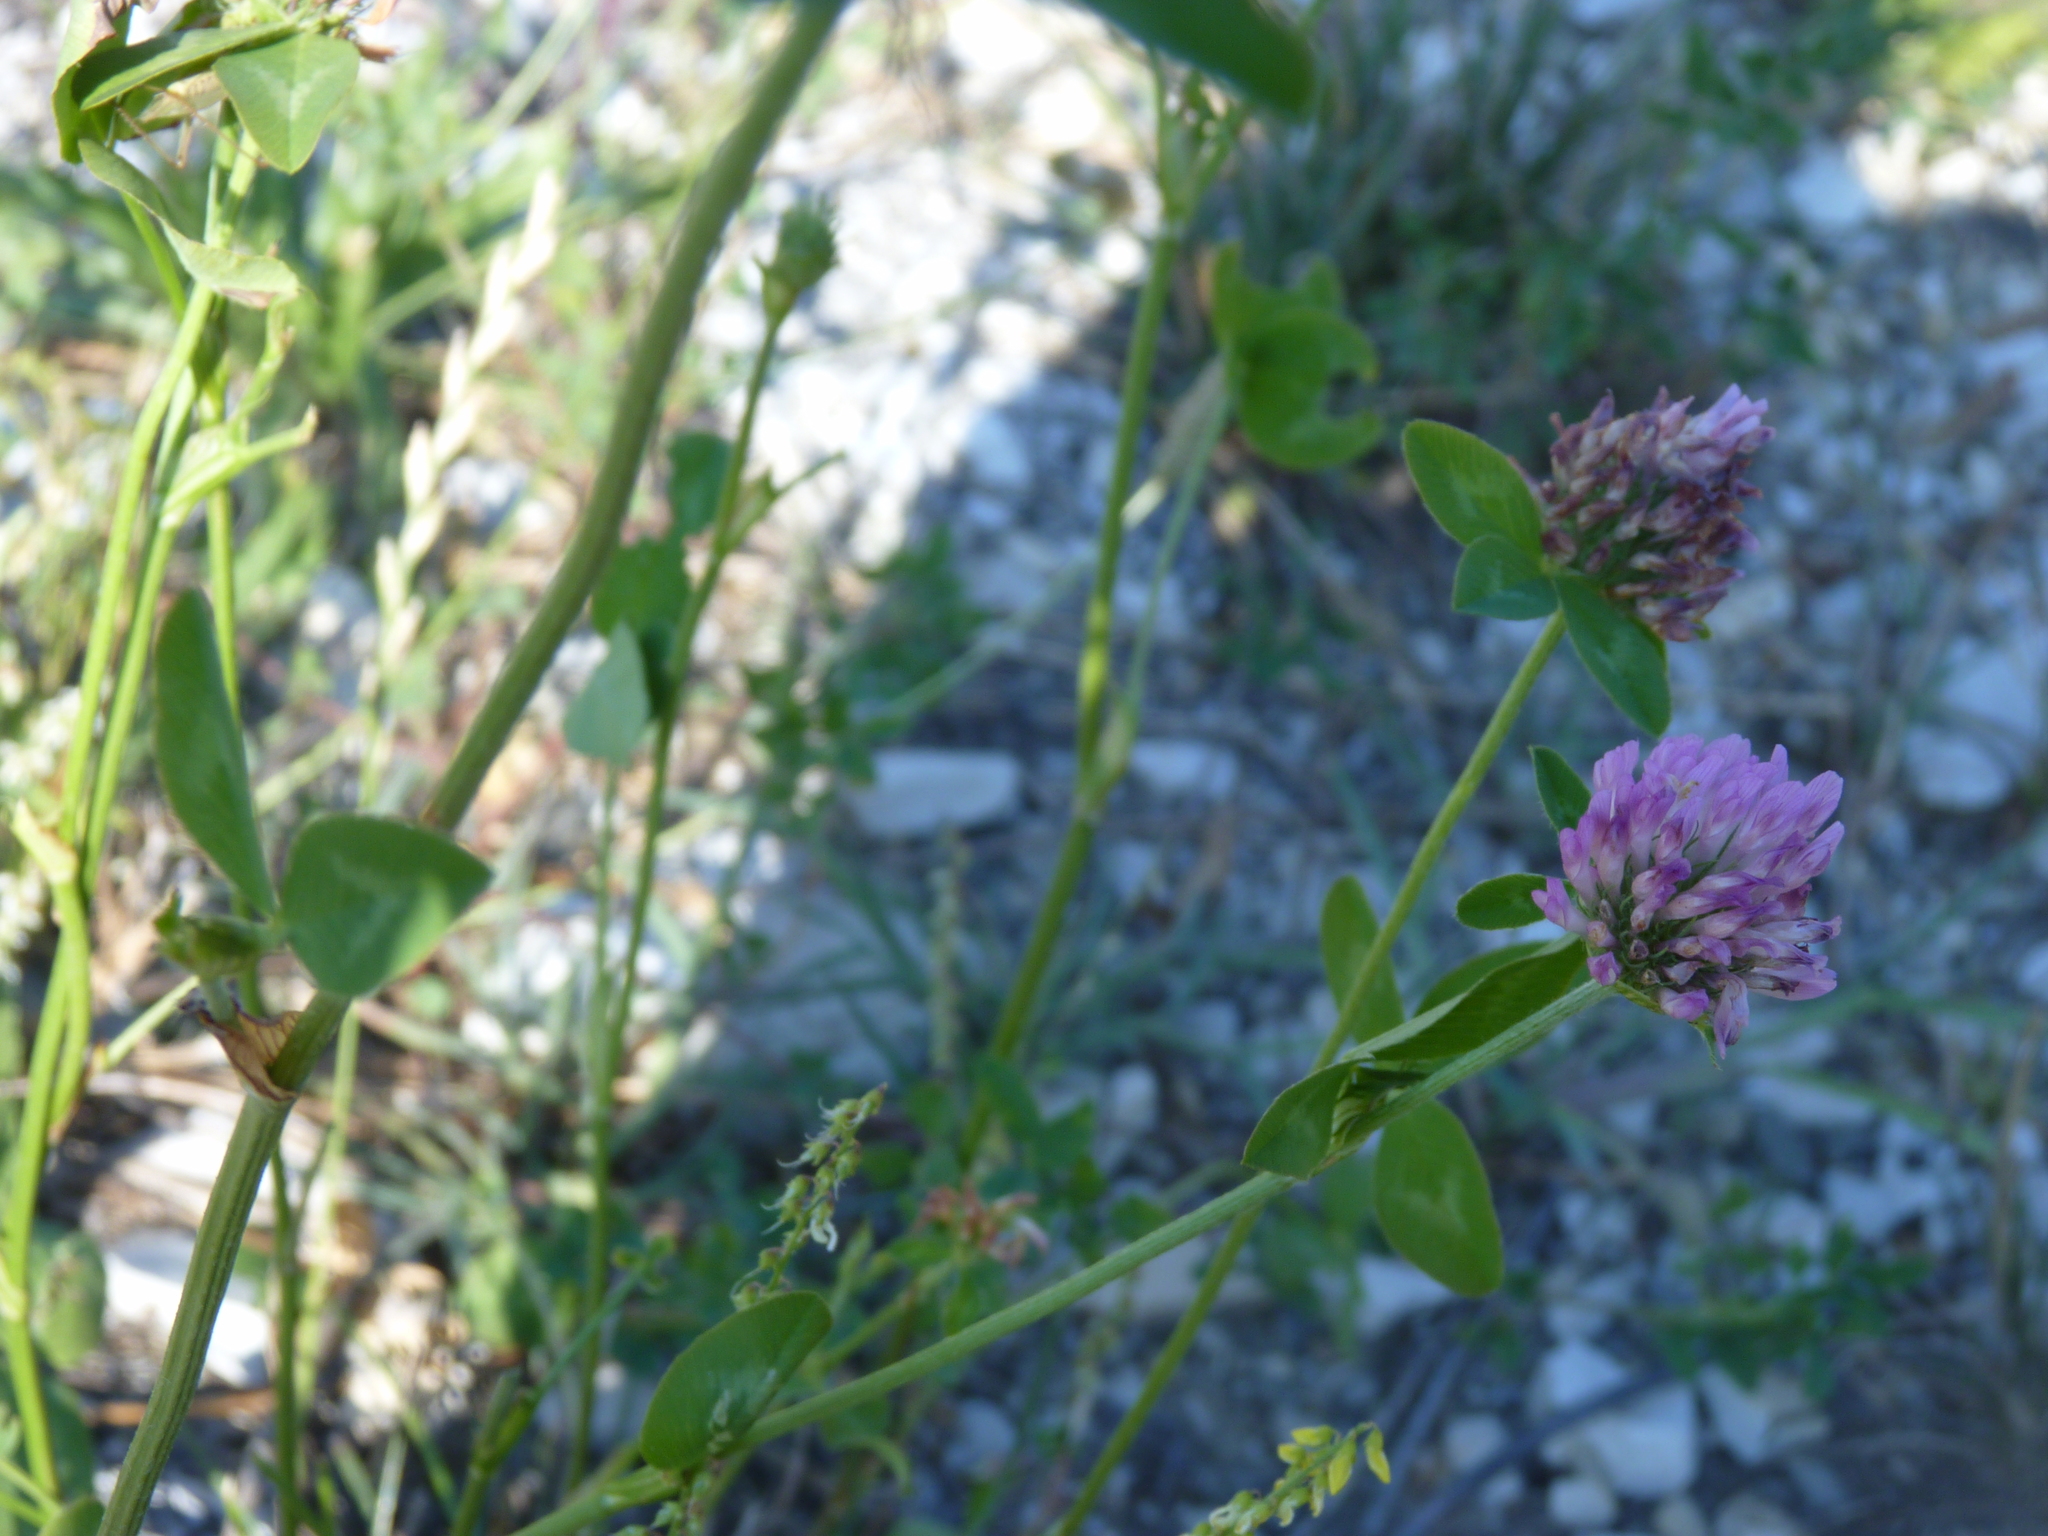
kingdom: Plantae
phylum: Tracheophyta
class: Magnoliopsida
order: Fabales
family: Fabaceae
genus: Trifolium
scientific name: Trifolium pratense
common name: Red clover
